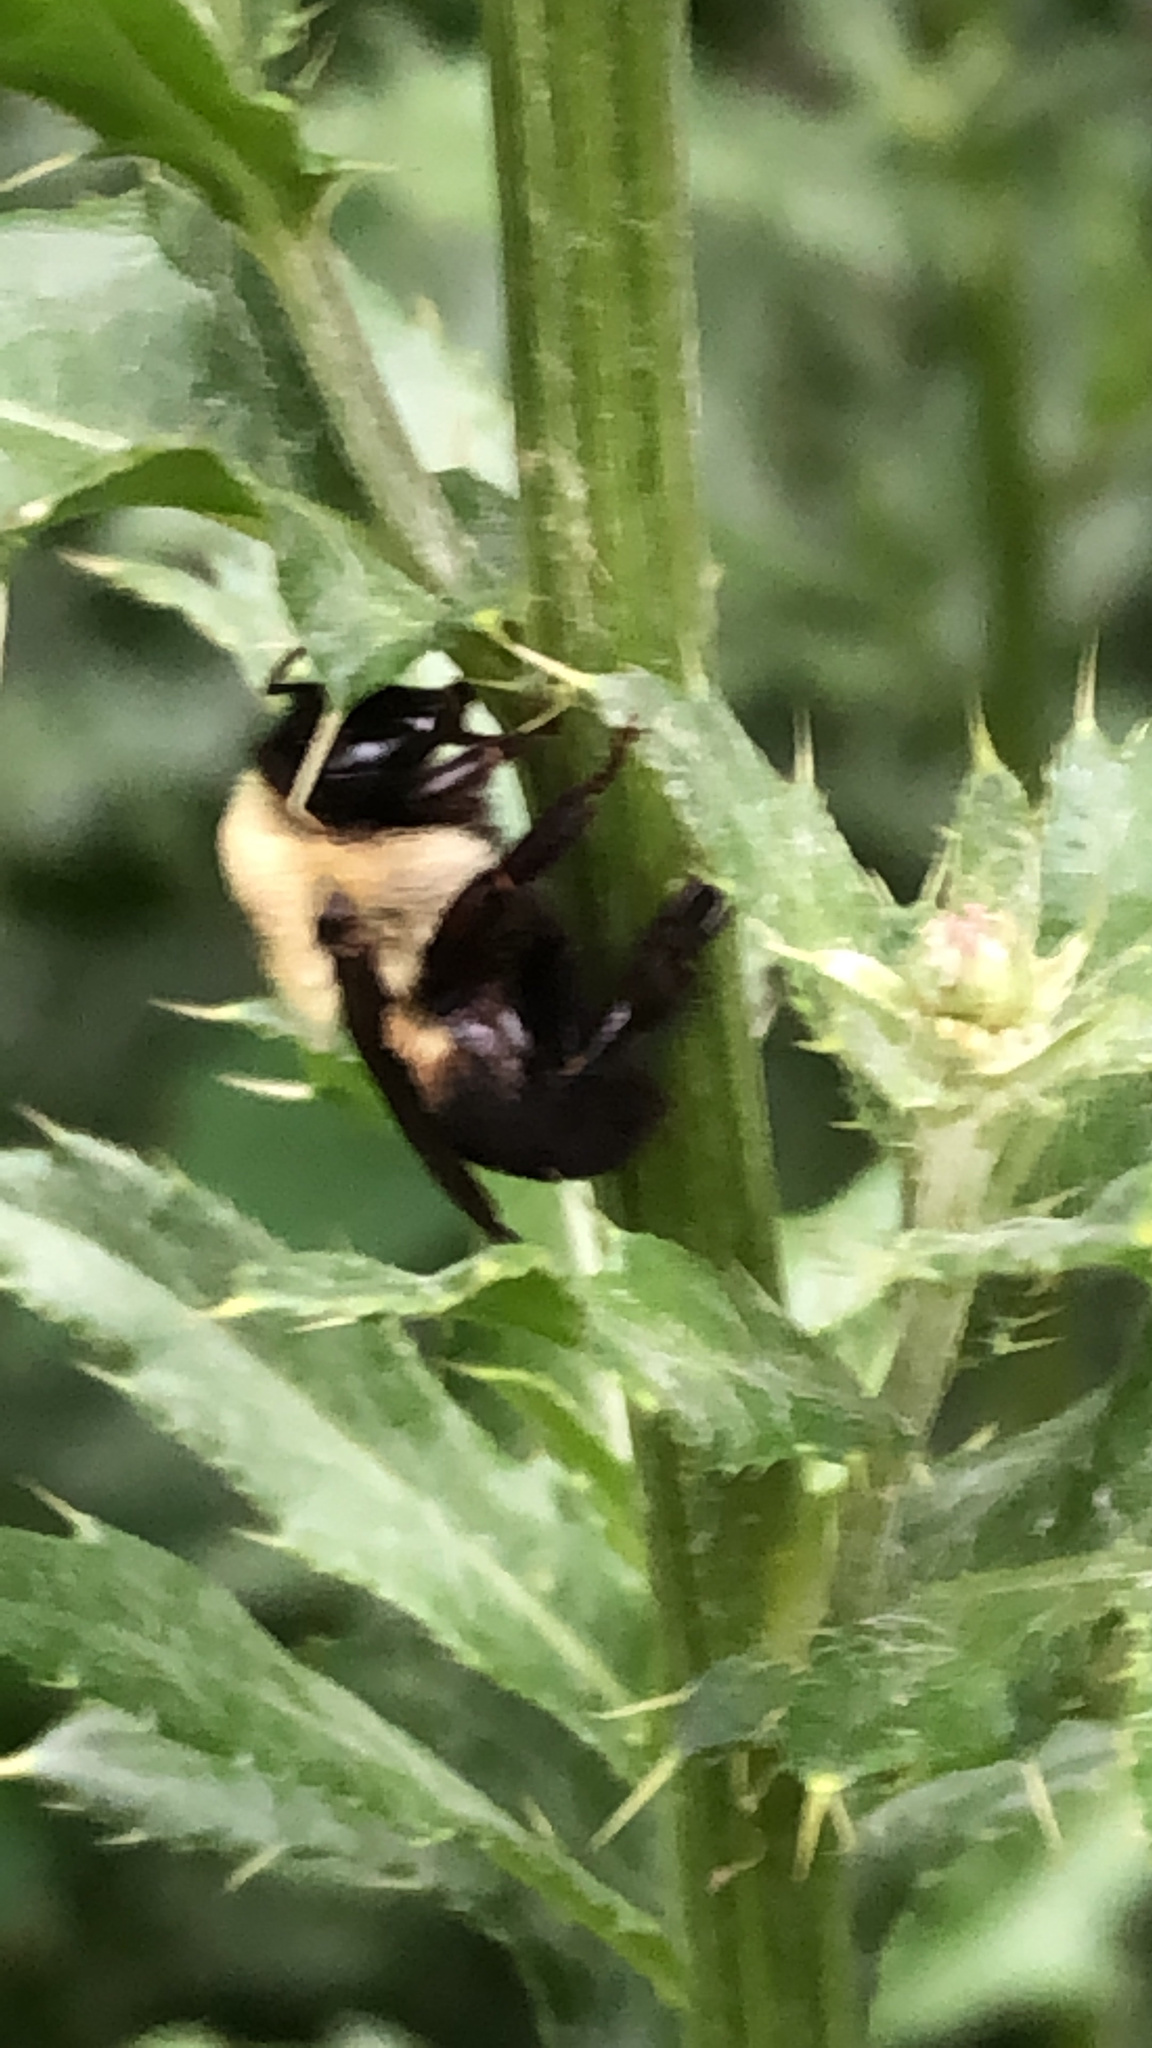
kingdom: Animalia
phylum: Arthropoda
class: Insecta
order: Hymenoptera
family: Apidae
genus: Bombus
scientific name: Bombus griseocollis
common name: Brown-belted bumble bee
